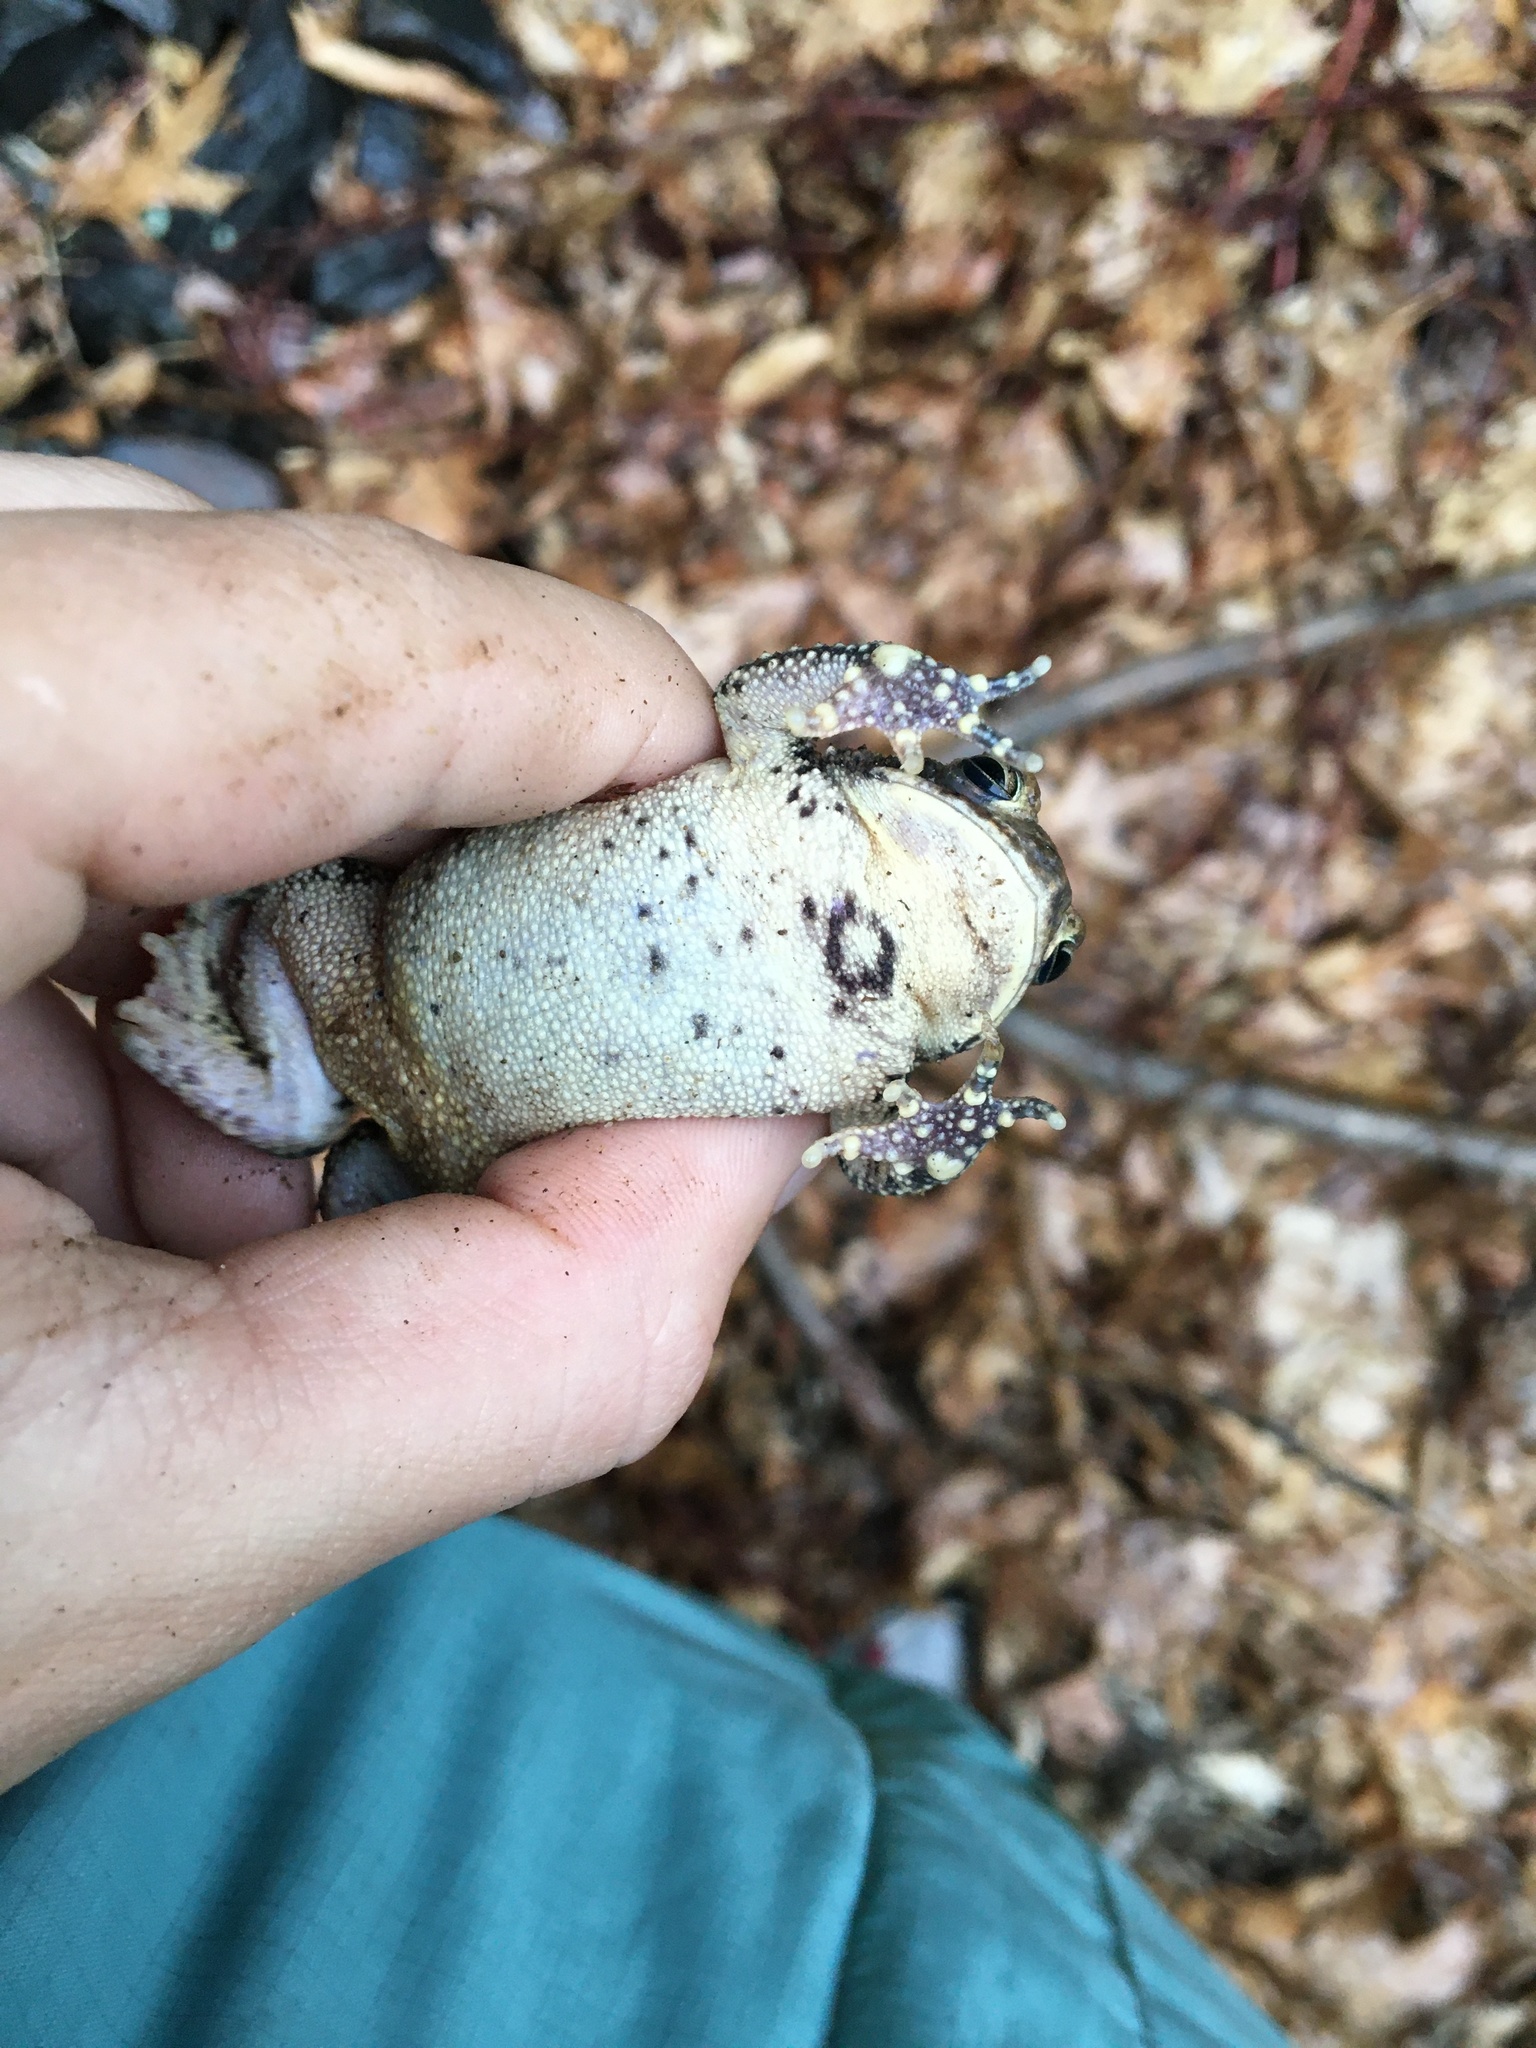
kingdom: Animalia
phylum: Chordata
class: Amphibia
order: Anura
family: Bufonidae
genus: Anaxyrus
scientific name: Anaxyrus americanus
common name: American toad
